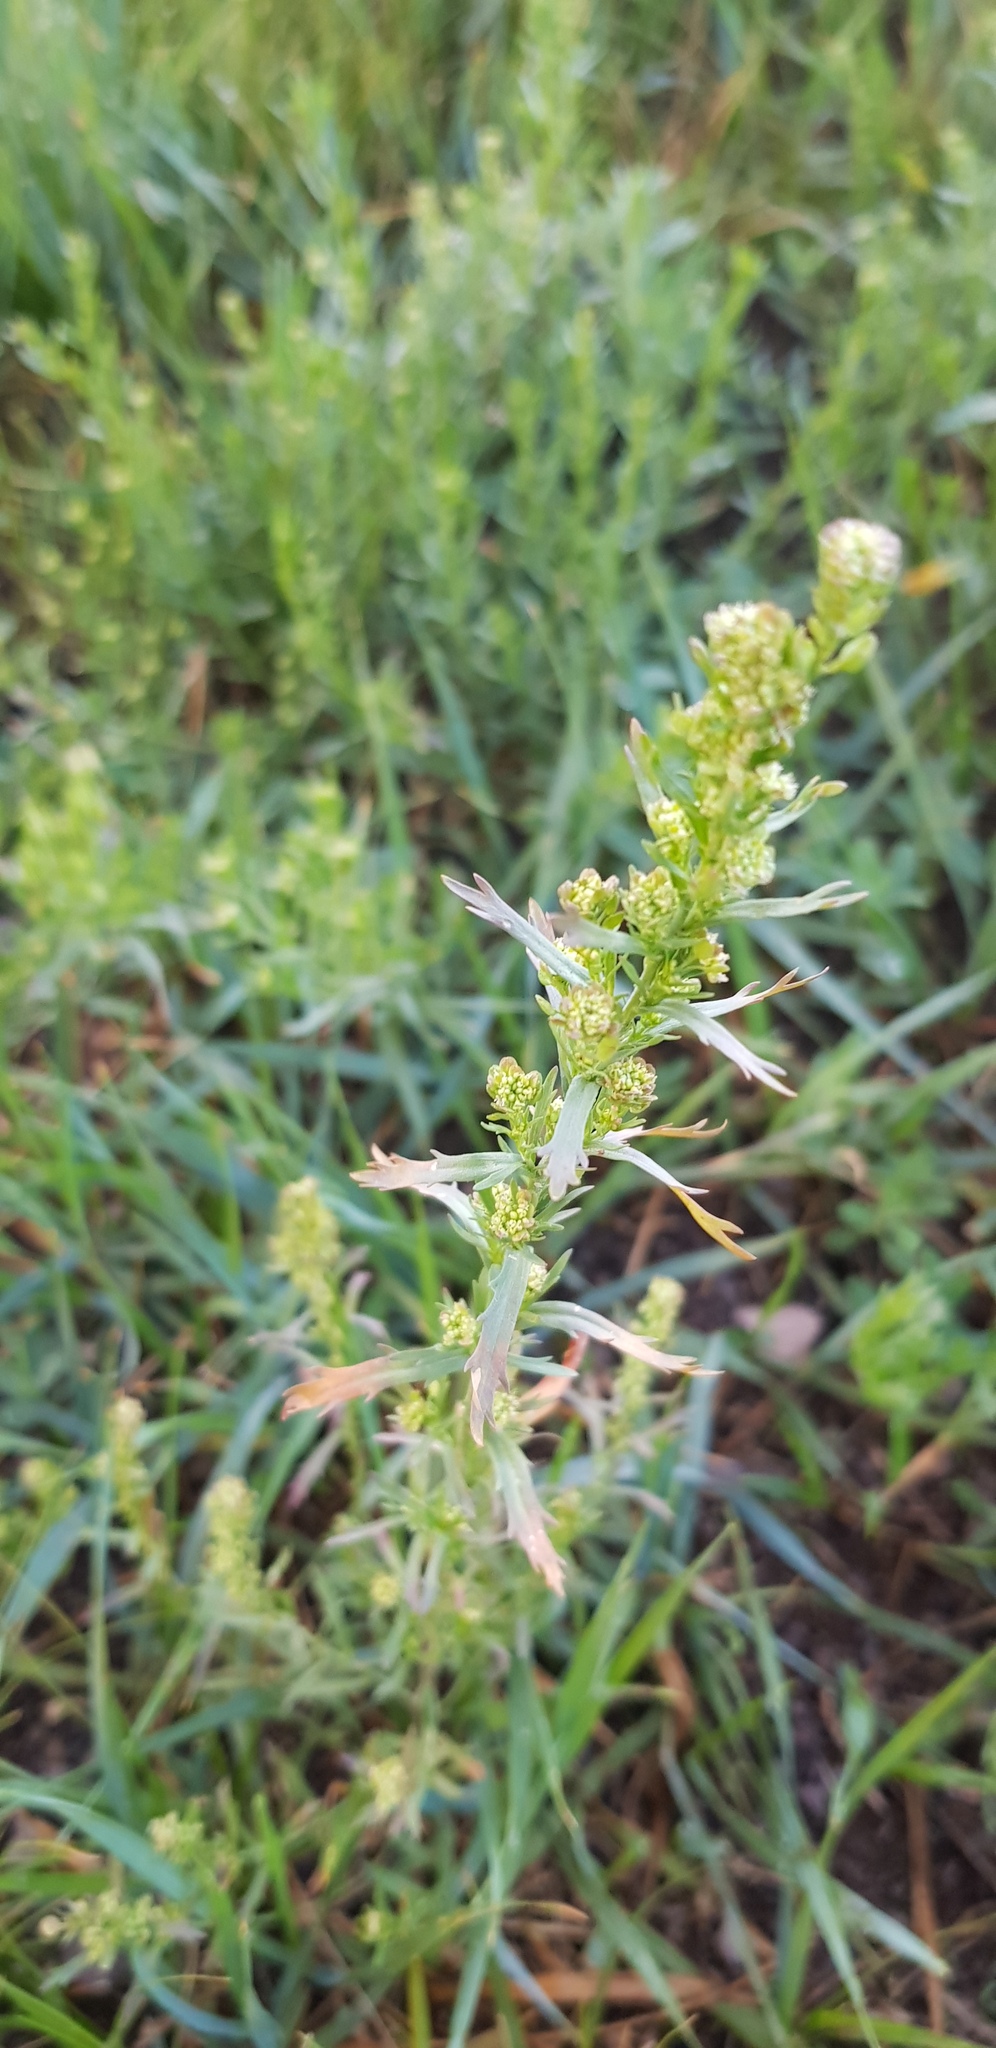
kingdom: Plantae
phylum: Tracheophyta
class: Magnoliopsida
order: Asterales
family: Asteraceae
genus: Artemisia
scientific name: Artemisia dracunculus
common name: Tarragon
